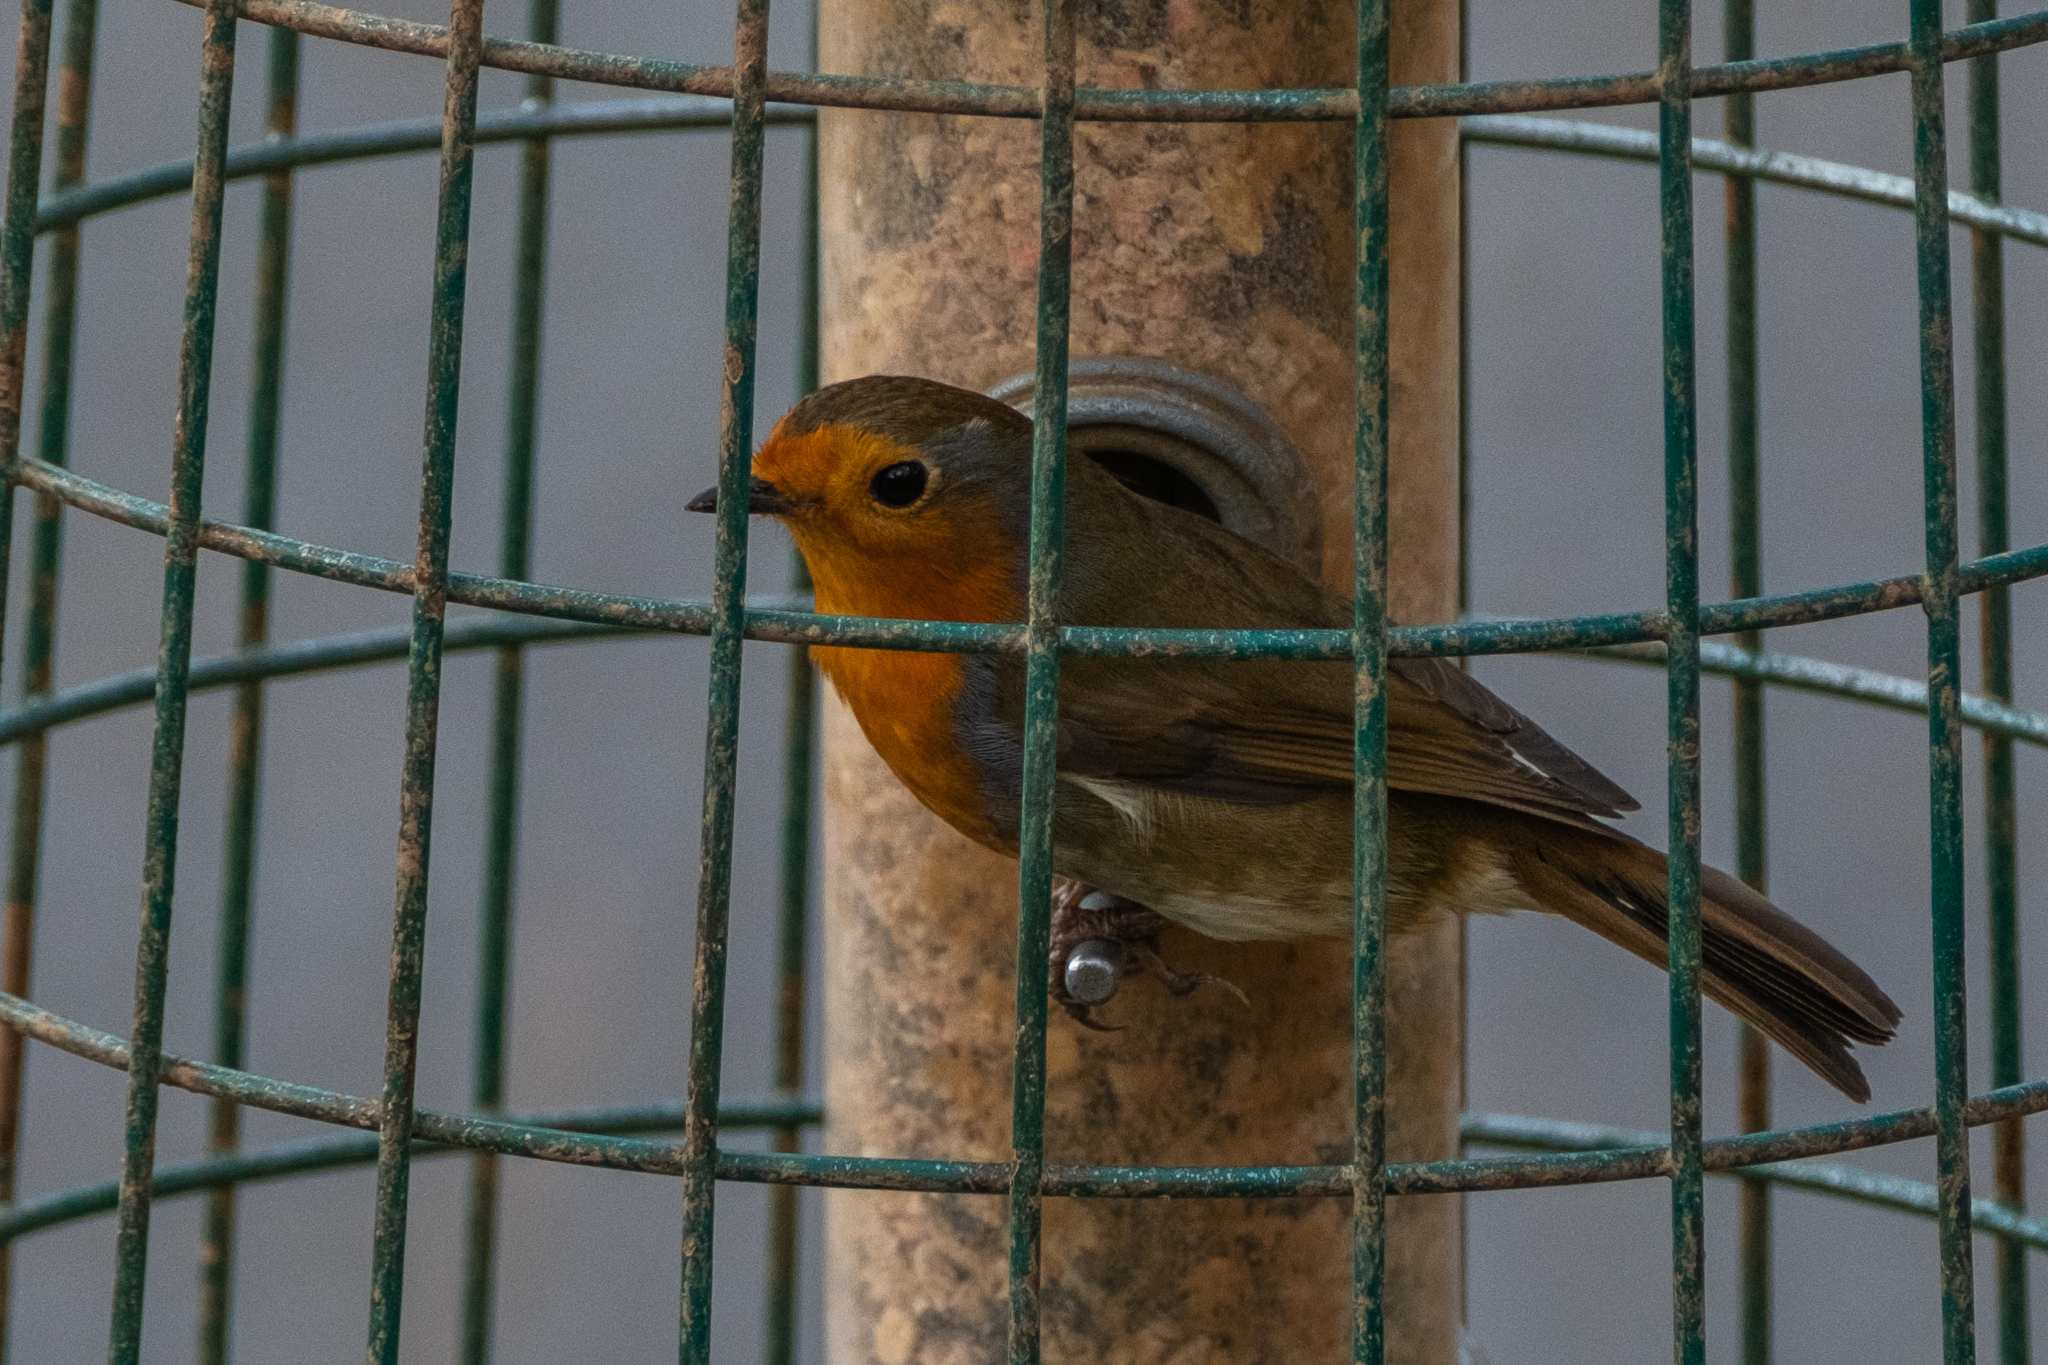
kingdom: Animalia
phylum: Chordata
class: Aves
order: Passeriformes
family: Muscicapidae
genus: Erithacus
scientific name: Erithacus rubecula
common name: European robin
